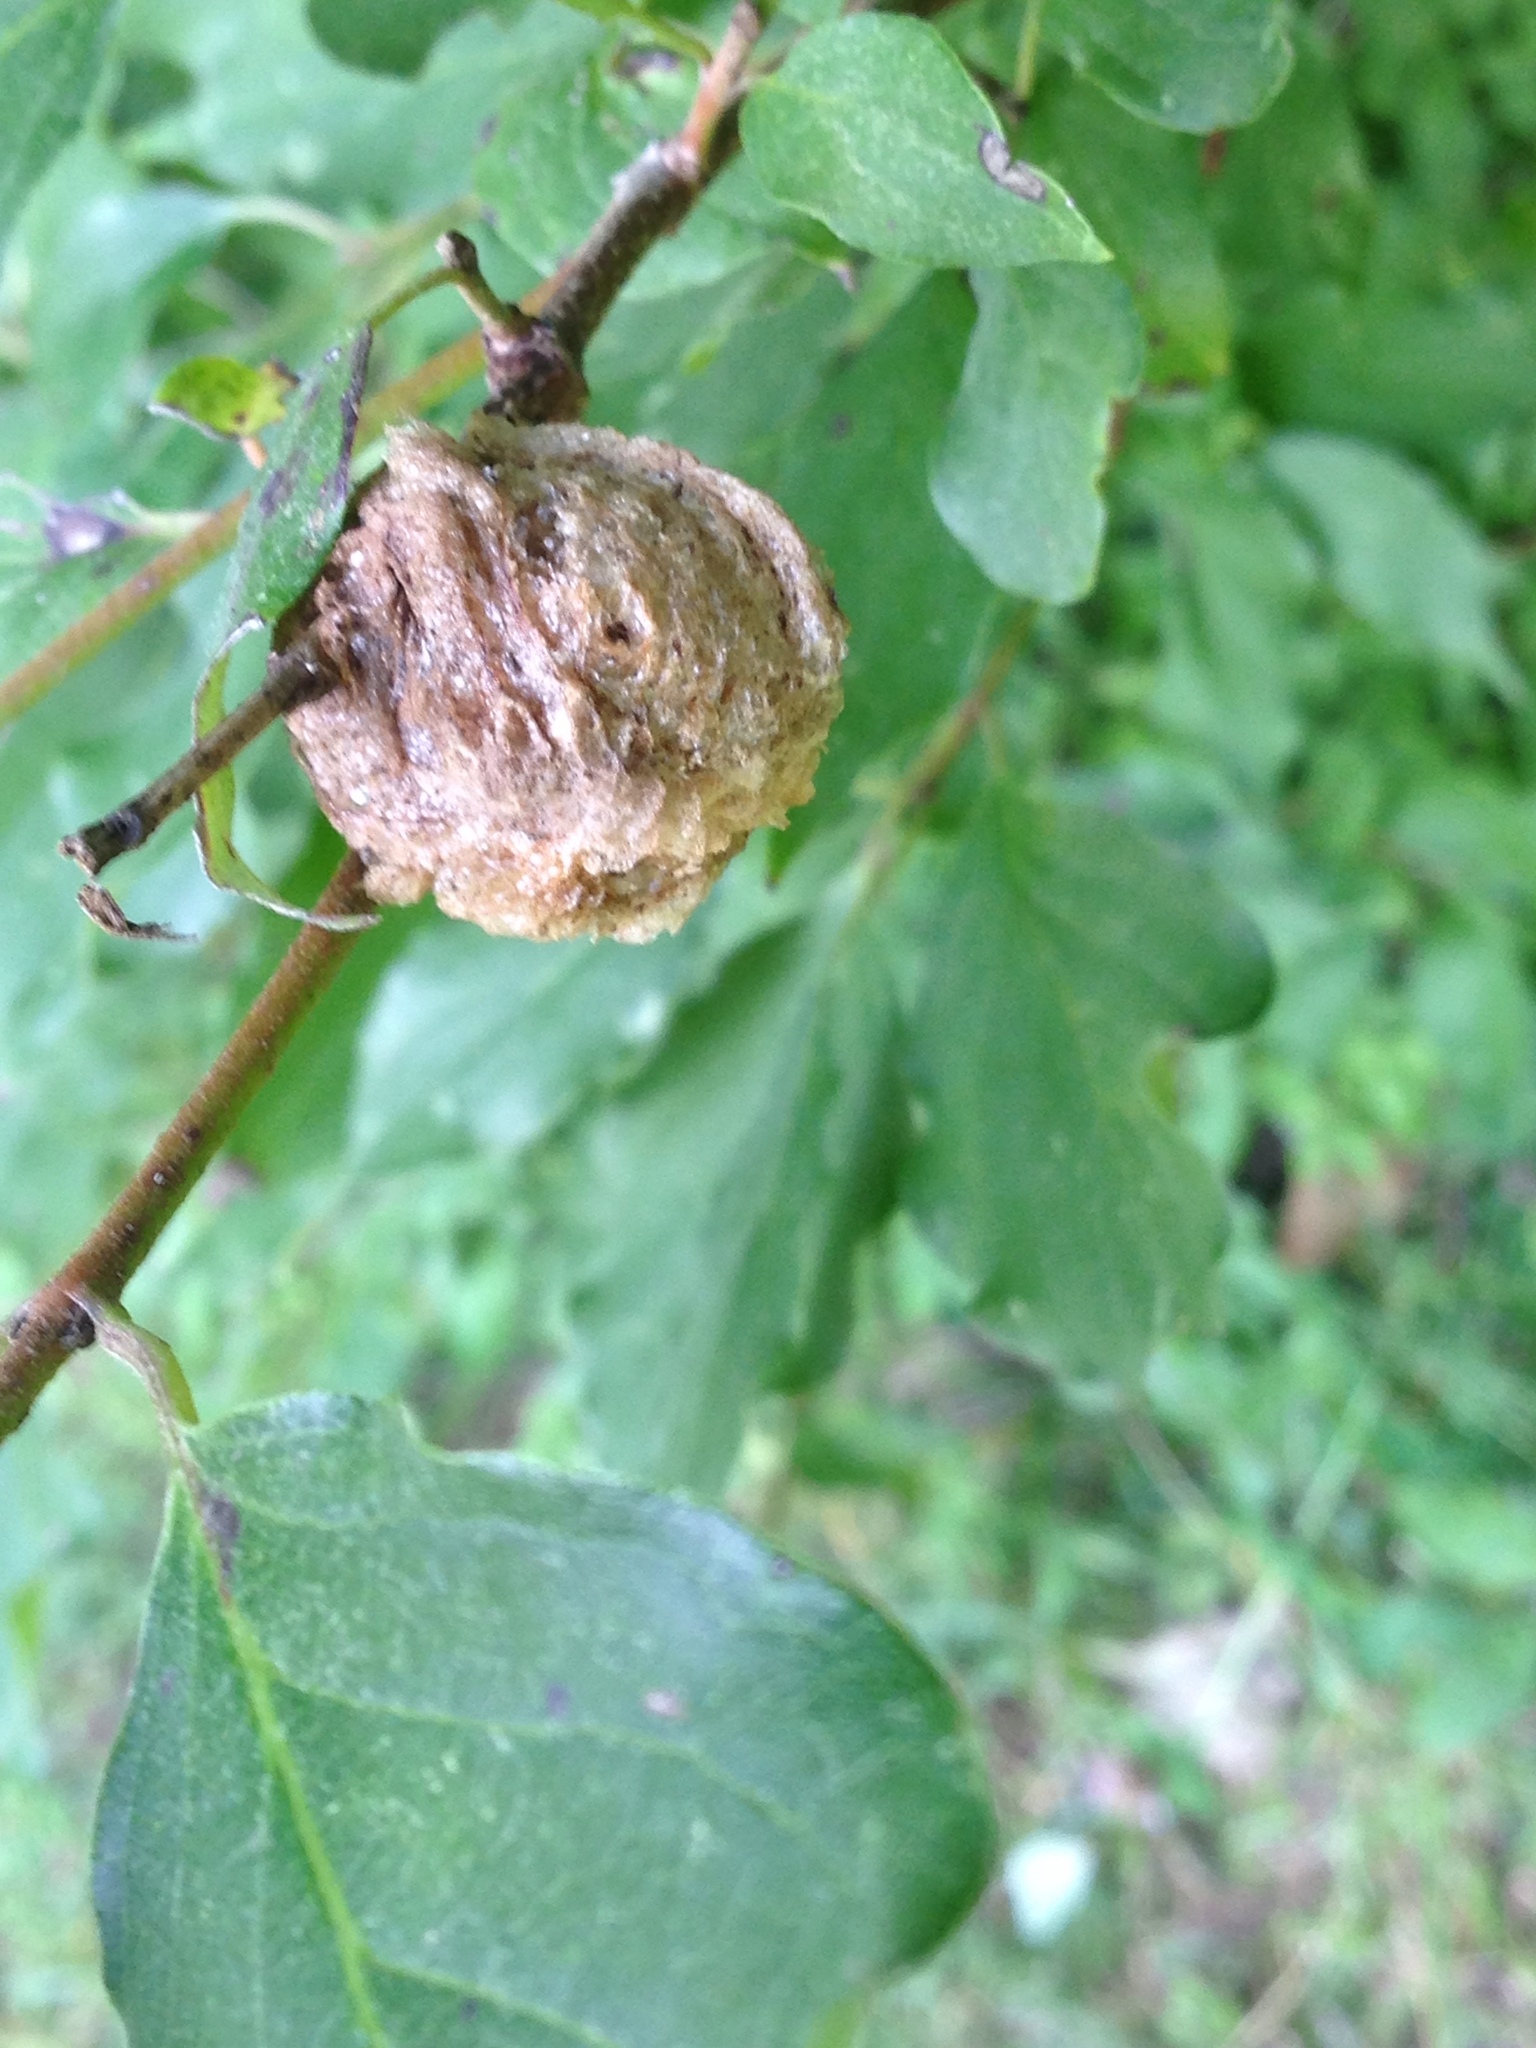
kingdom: Animalia
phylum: Arthropoda
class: Insecta
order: Mantodea
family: Mantidae
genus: Tenodera
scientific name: Tenodera sinensis
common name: Chinese mantis
